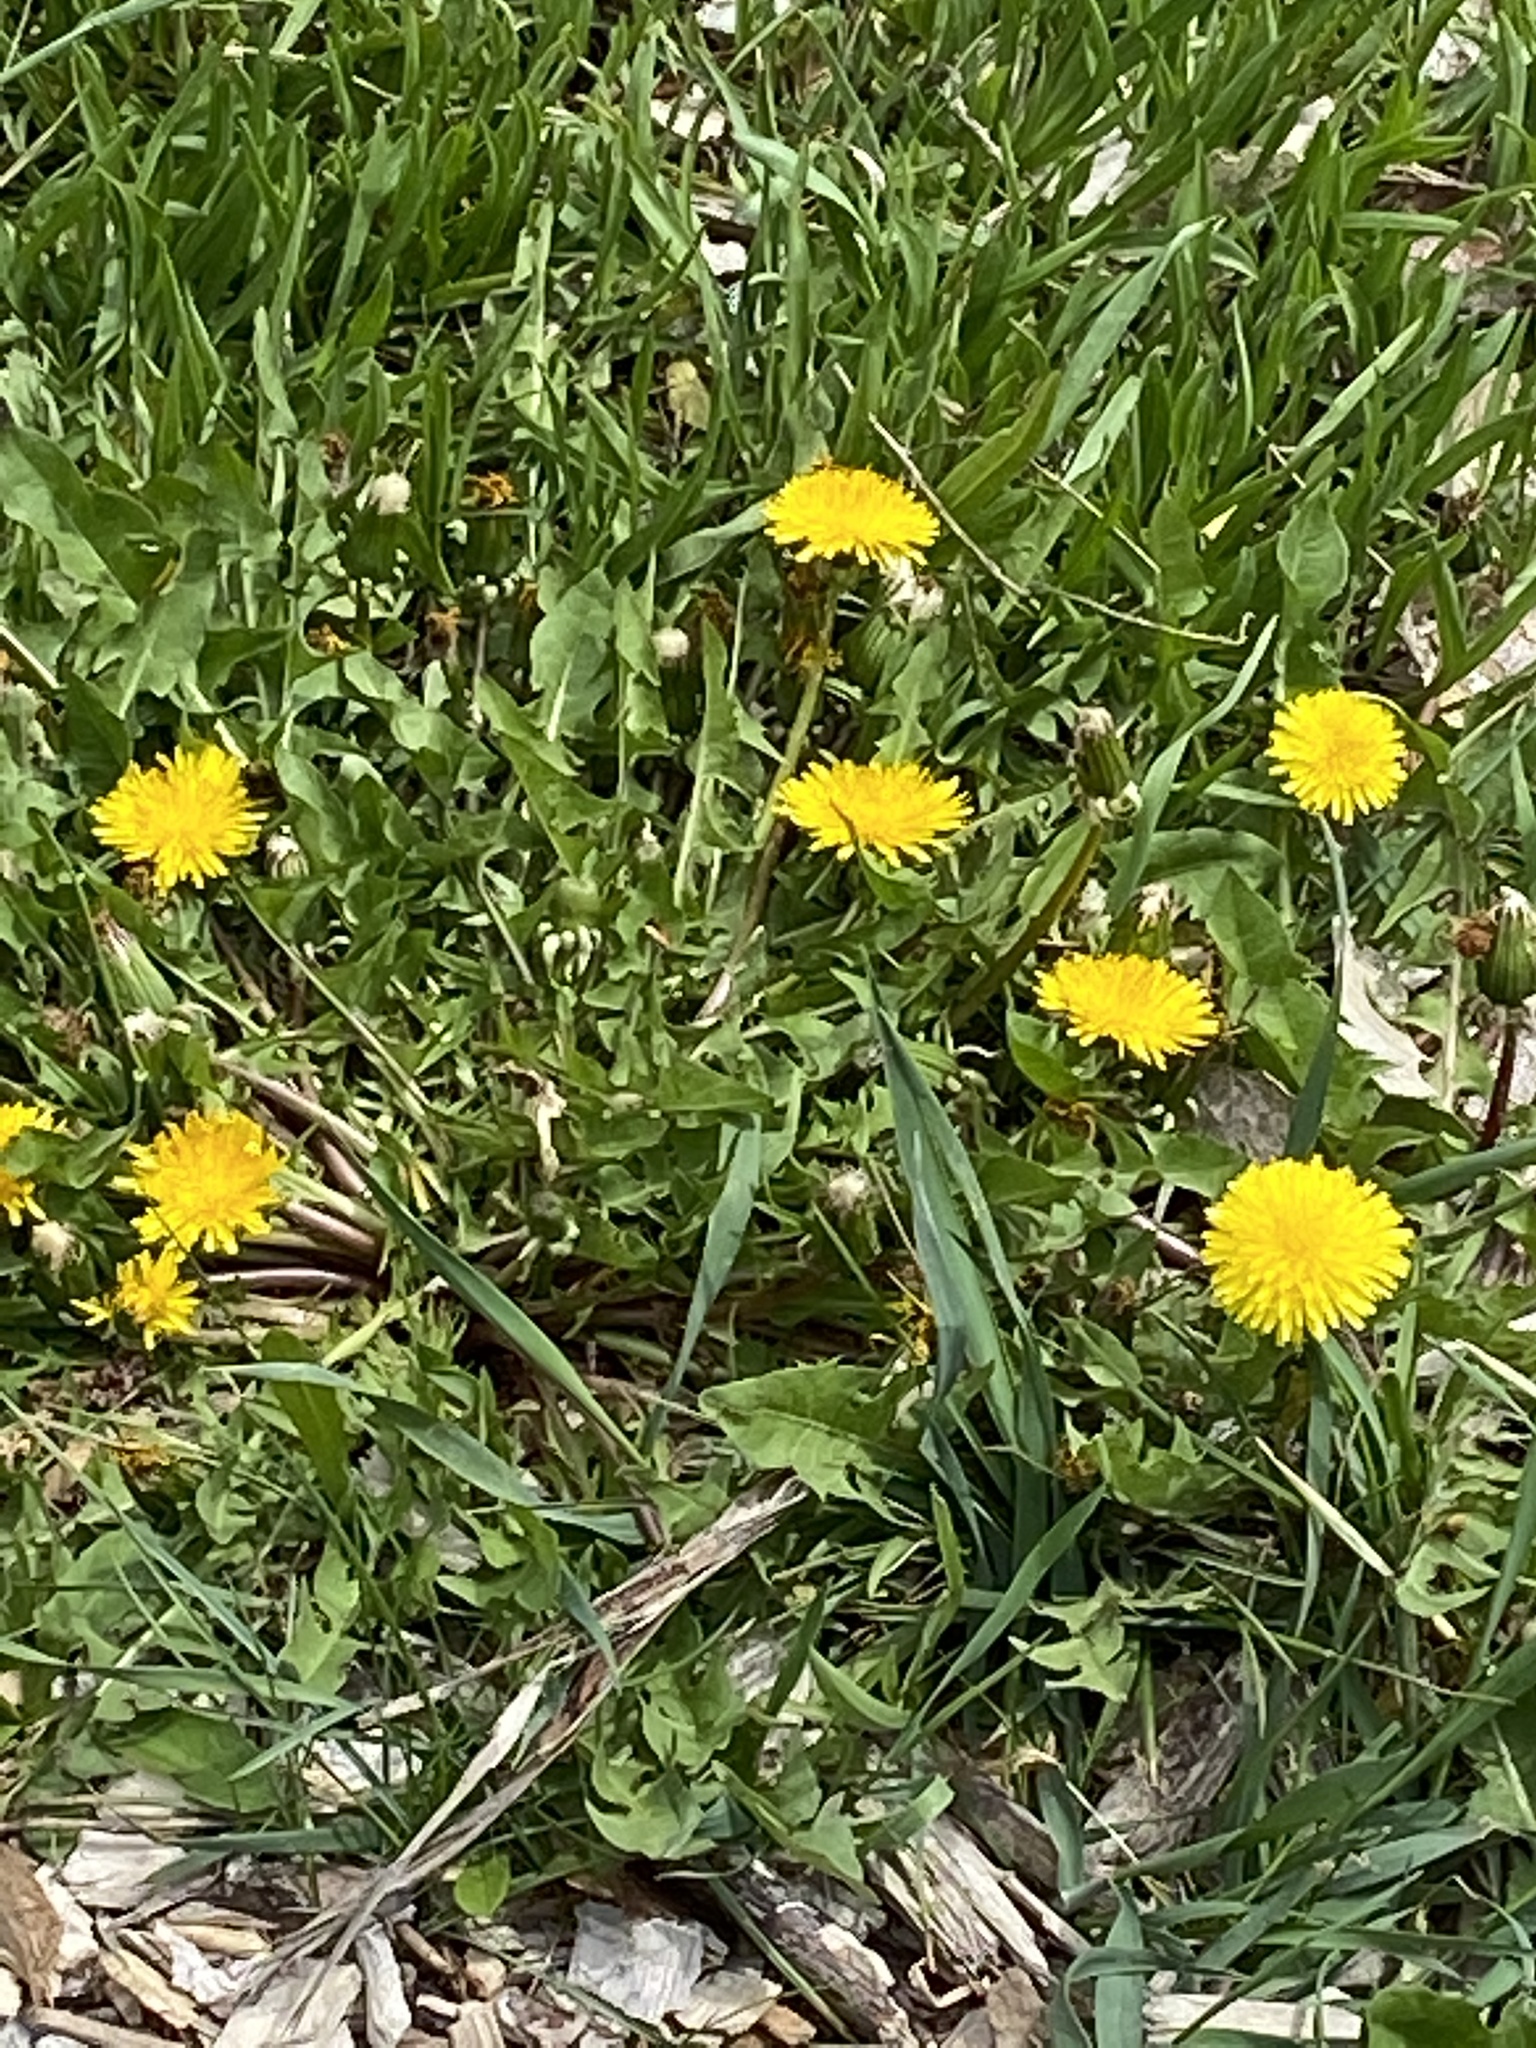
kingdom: Plantae
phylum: Tracheophyta
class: Magnoliopsida
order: Asterales
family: Asteraceae
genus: Taraxacum
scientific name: Taraxacum officinale
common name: Common dandelion
